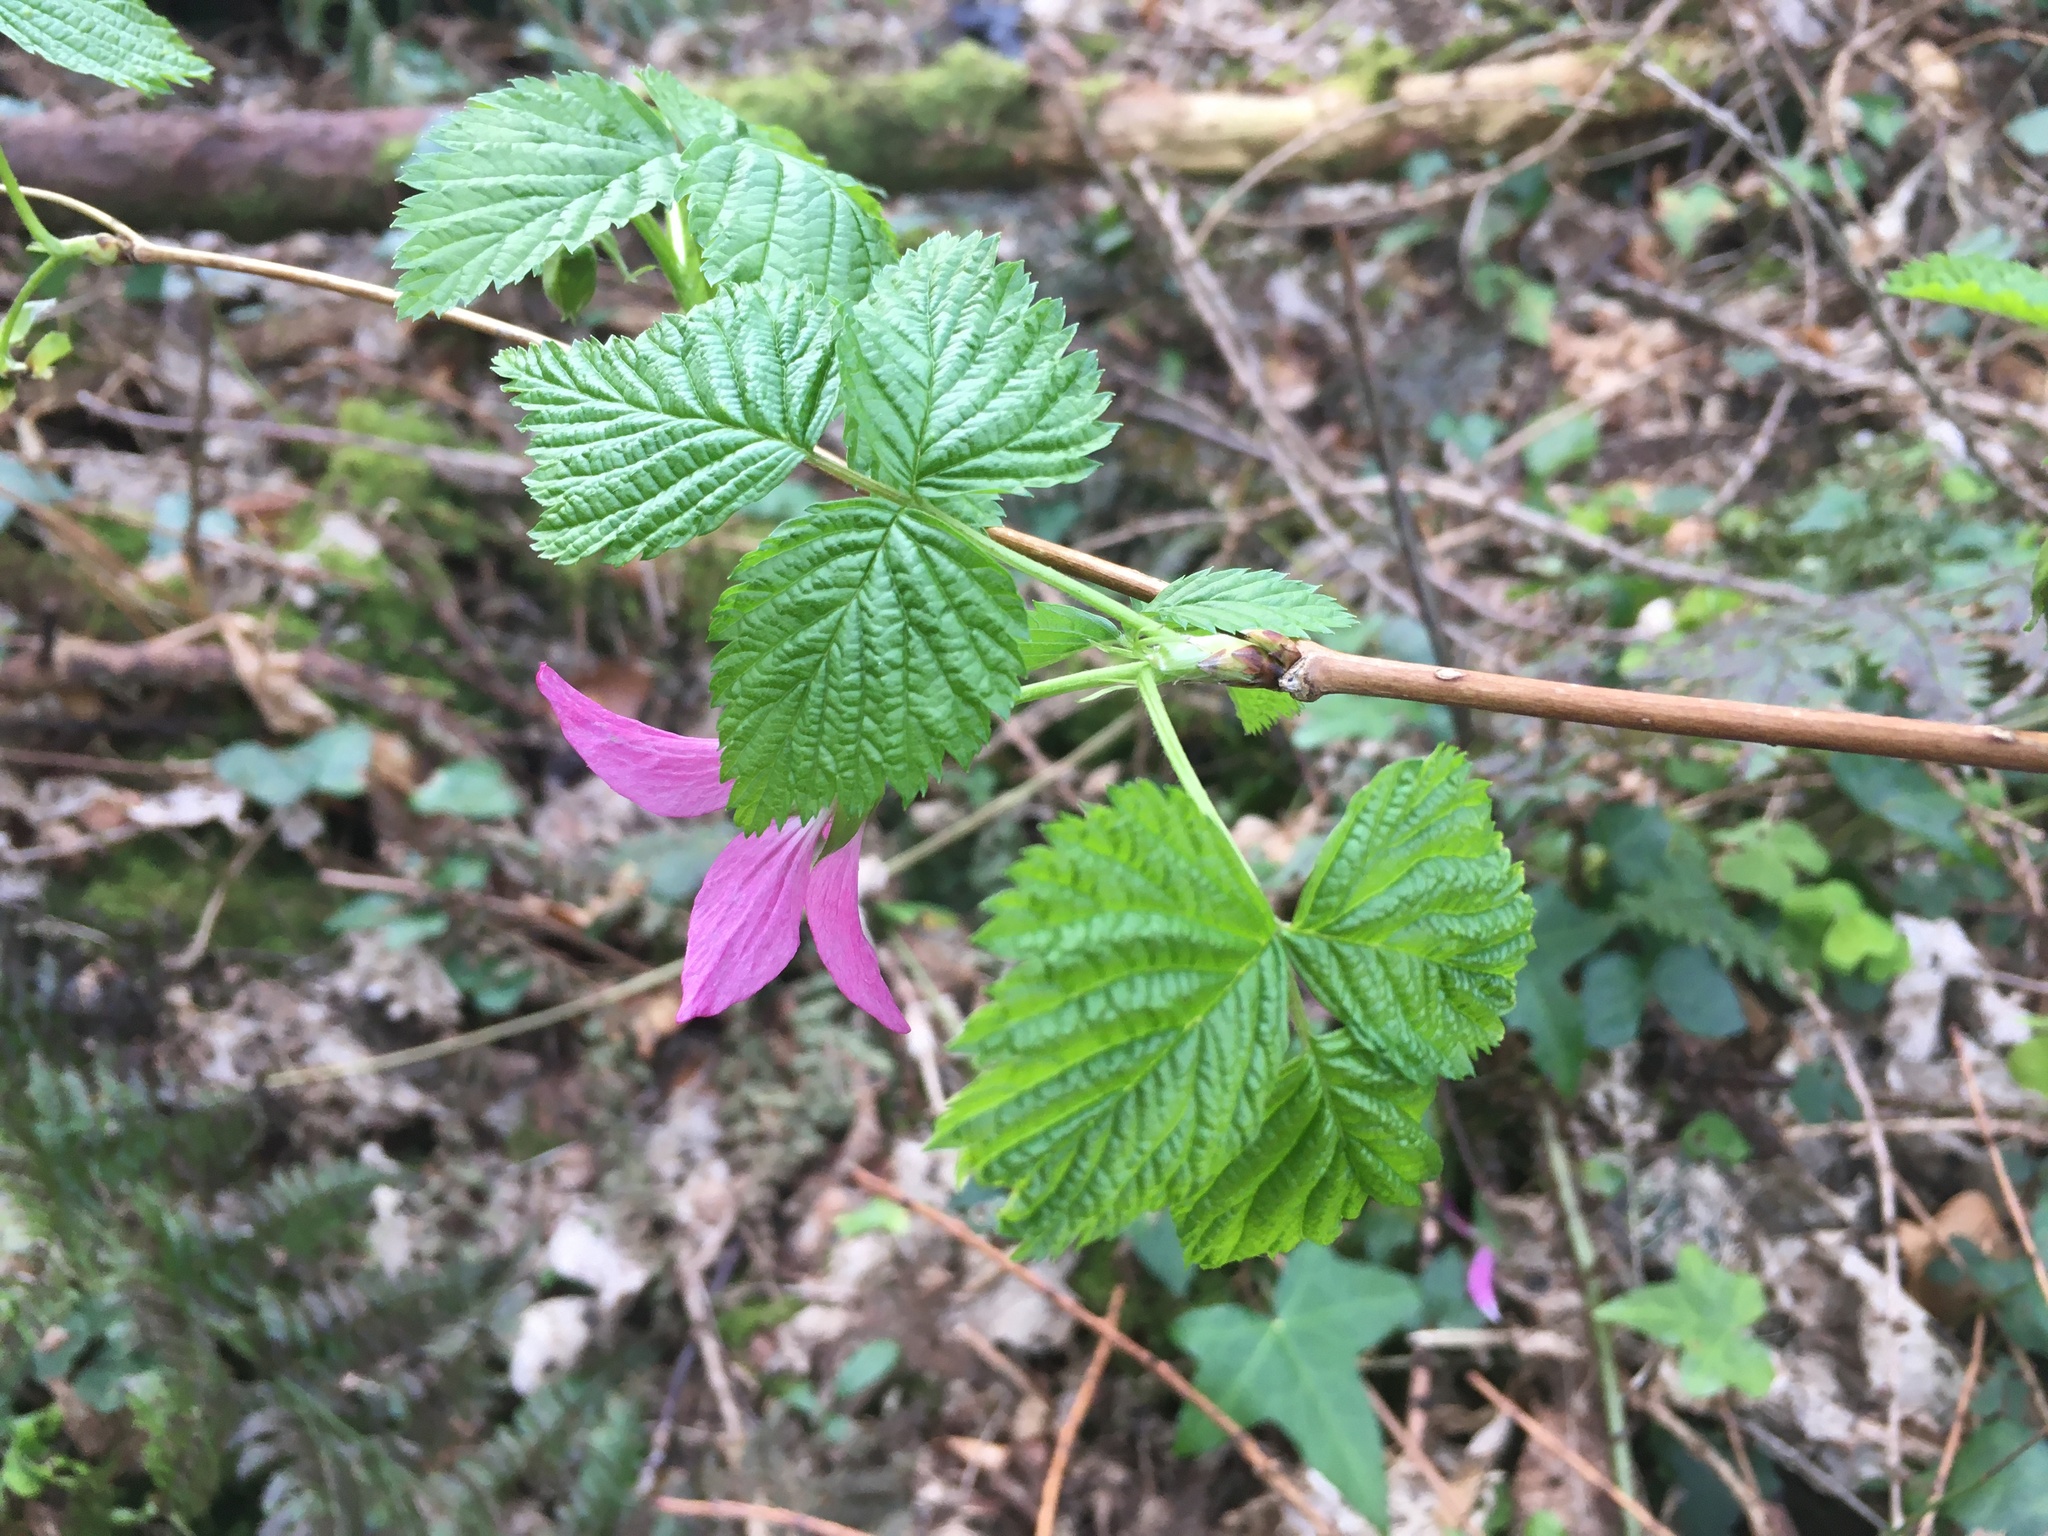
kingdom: Plantae
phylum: Tracheophyta
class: Magnoliopsida
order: Rosales
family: Rosaceae
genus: Rubus
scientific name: Rubus spectabilis
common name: Salmonberry
